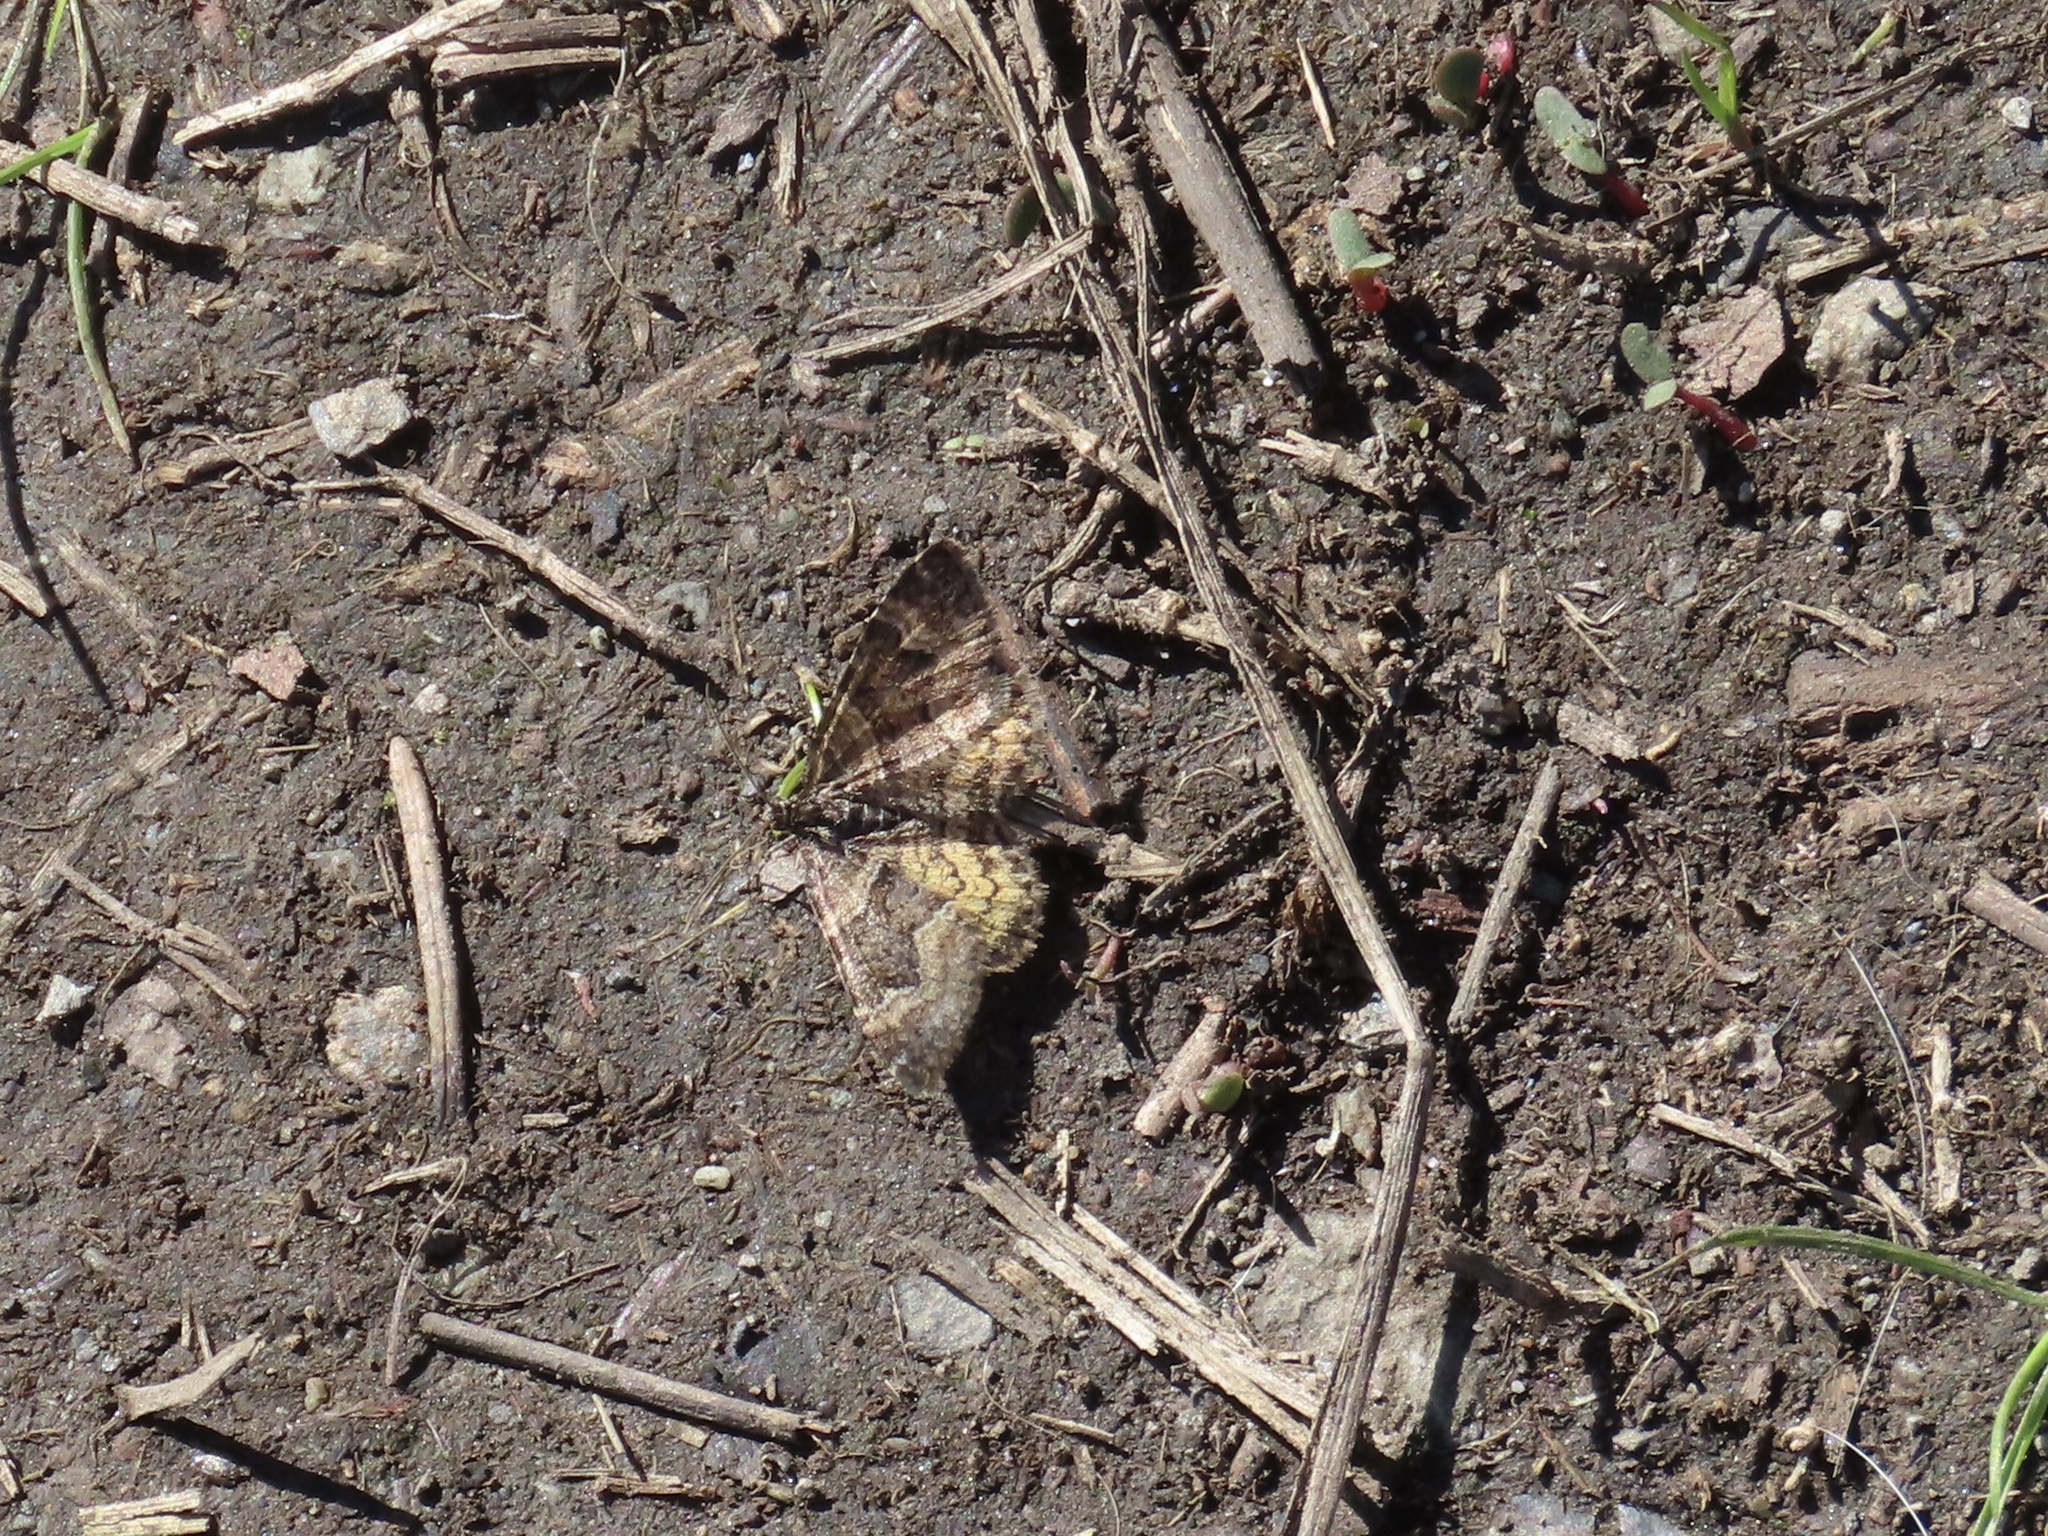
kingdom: Animalia
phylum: Arthropoda
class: Insecta
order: Lepidoptera
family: Geometridae
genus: Epirrhoe
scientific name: Epirrhoe plebeculata
